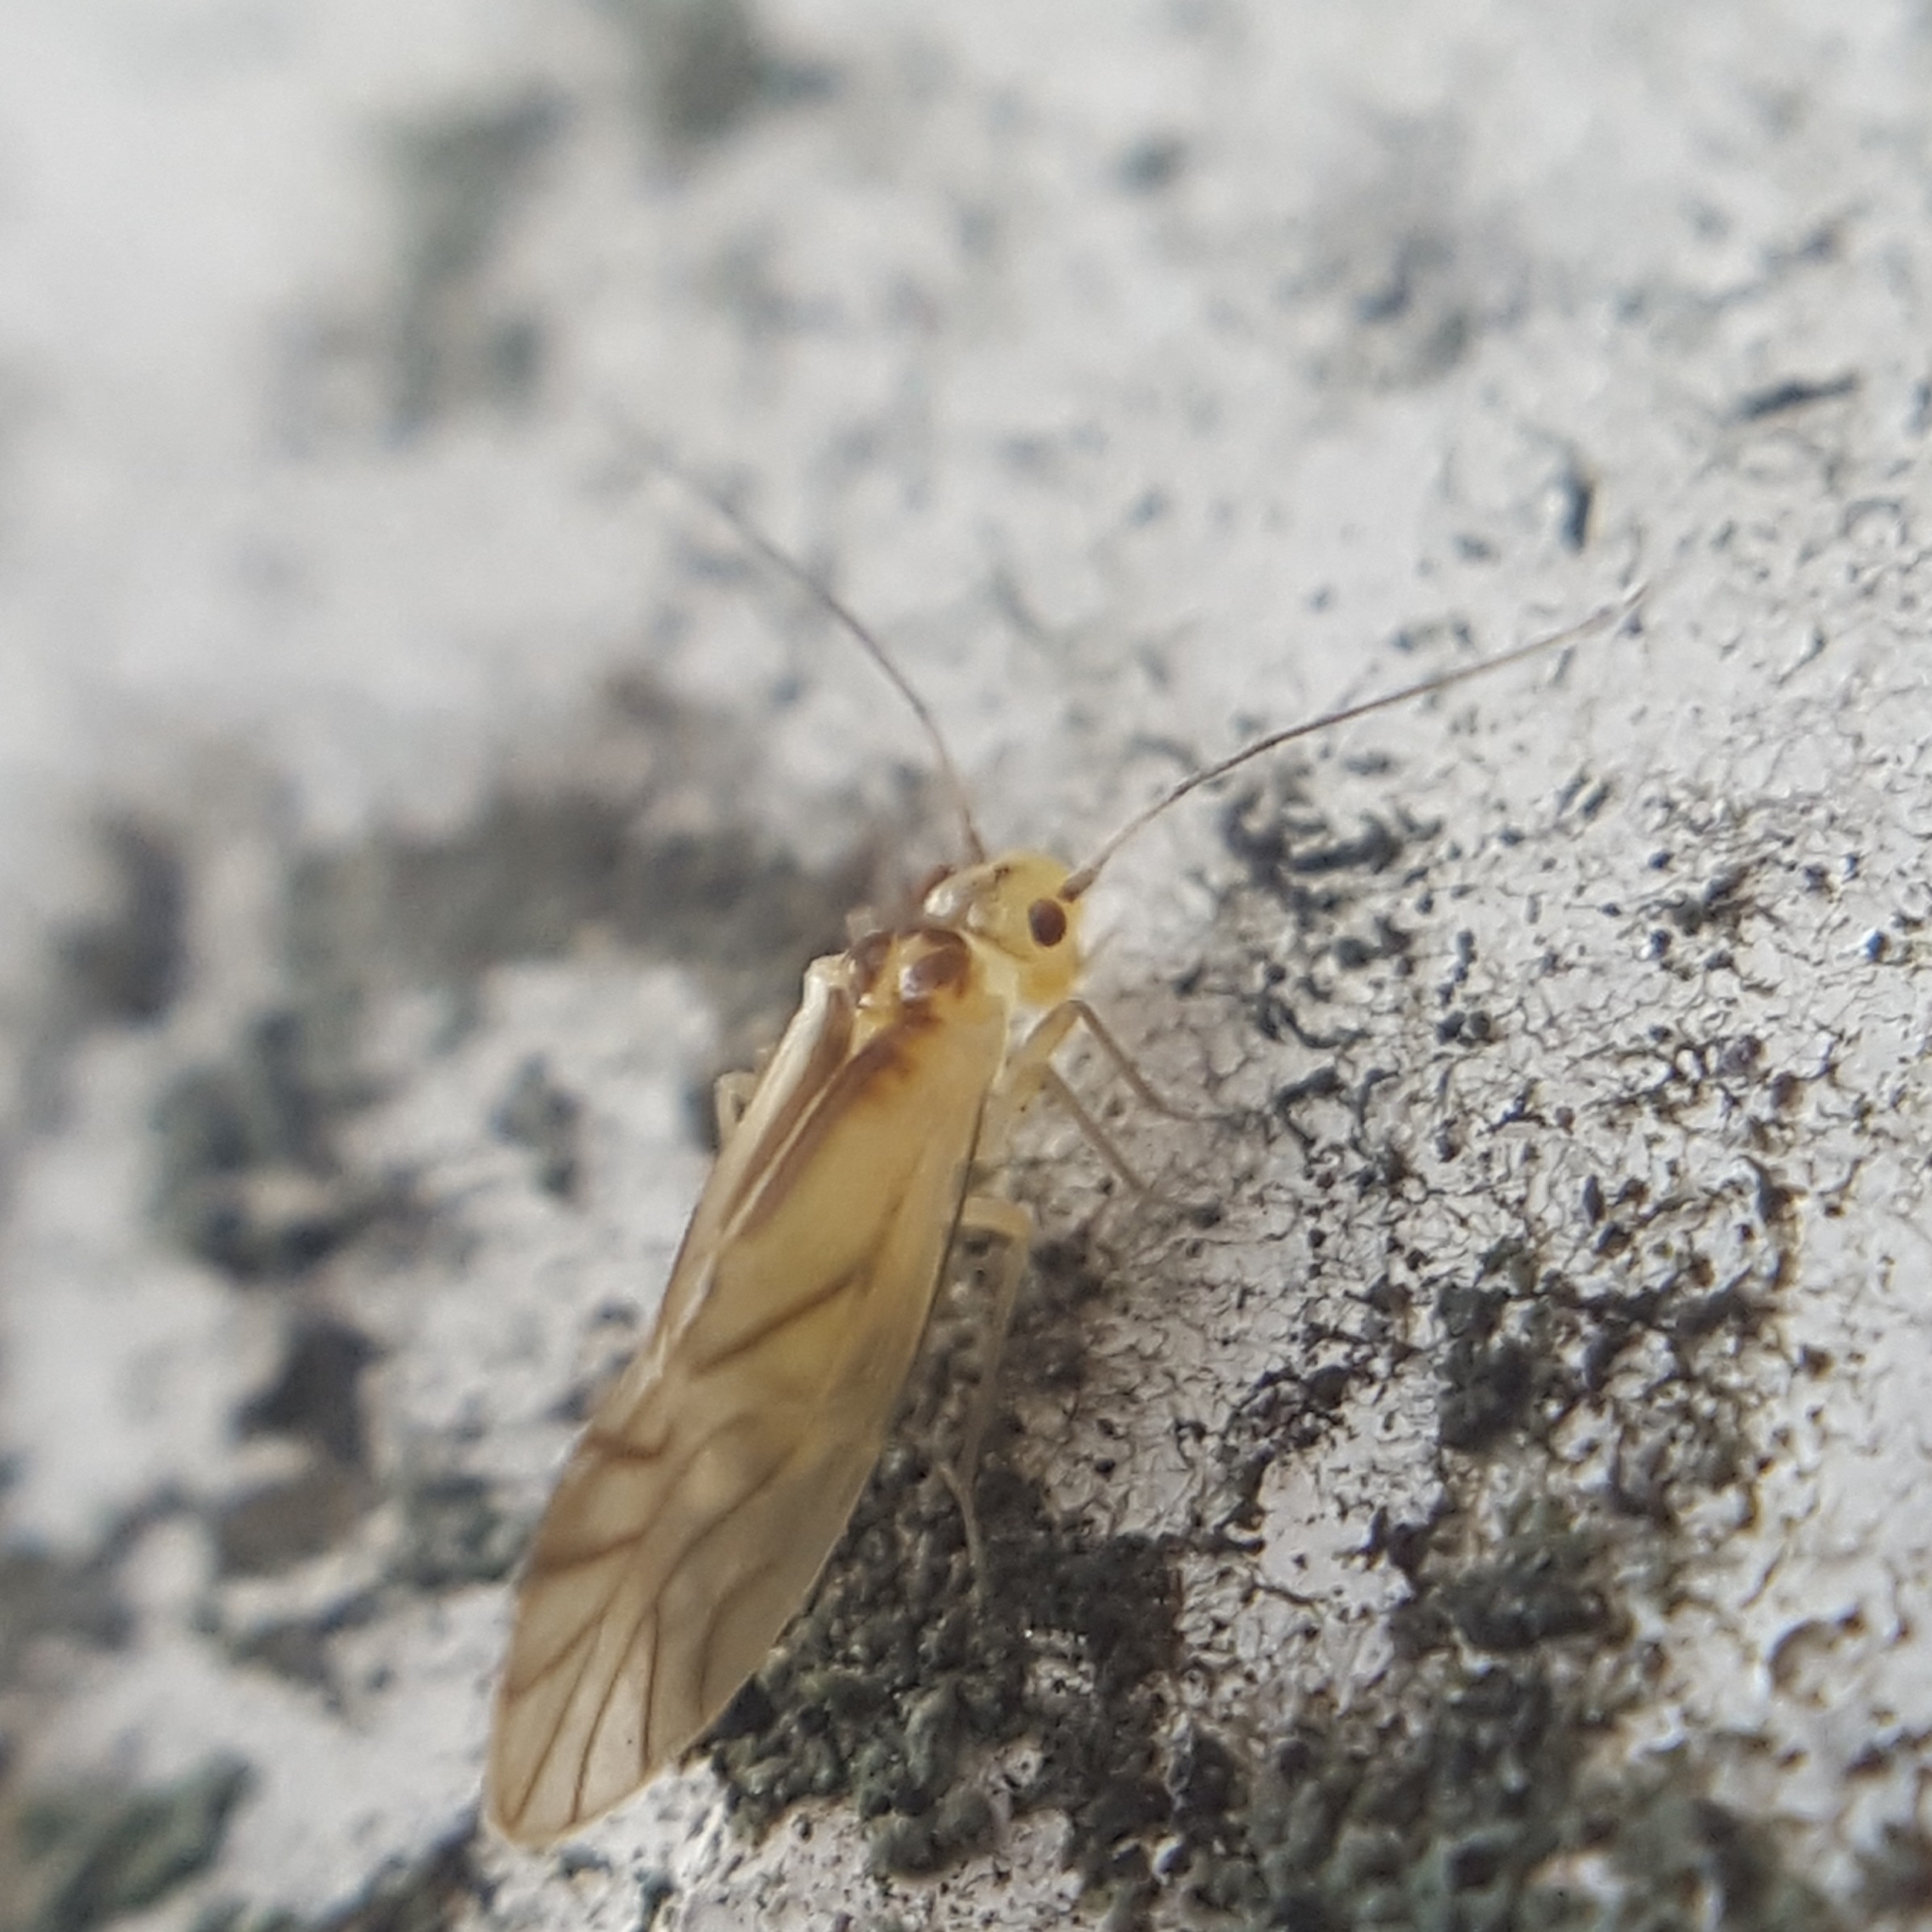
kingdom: Animalia
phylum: Arthropoda
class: Insecta
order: Psocodea
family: Caeciliusidae
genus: Valenzuela
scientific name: Valenzuela flavidus
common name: Yellow barklouse
